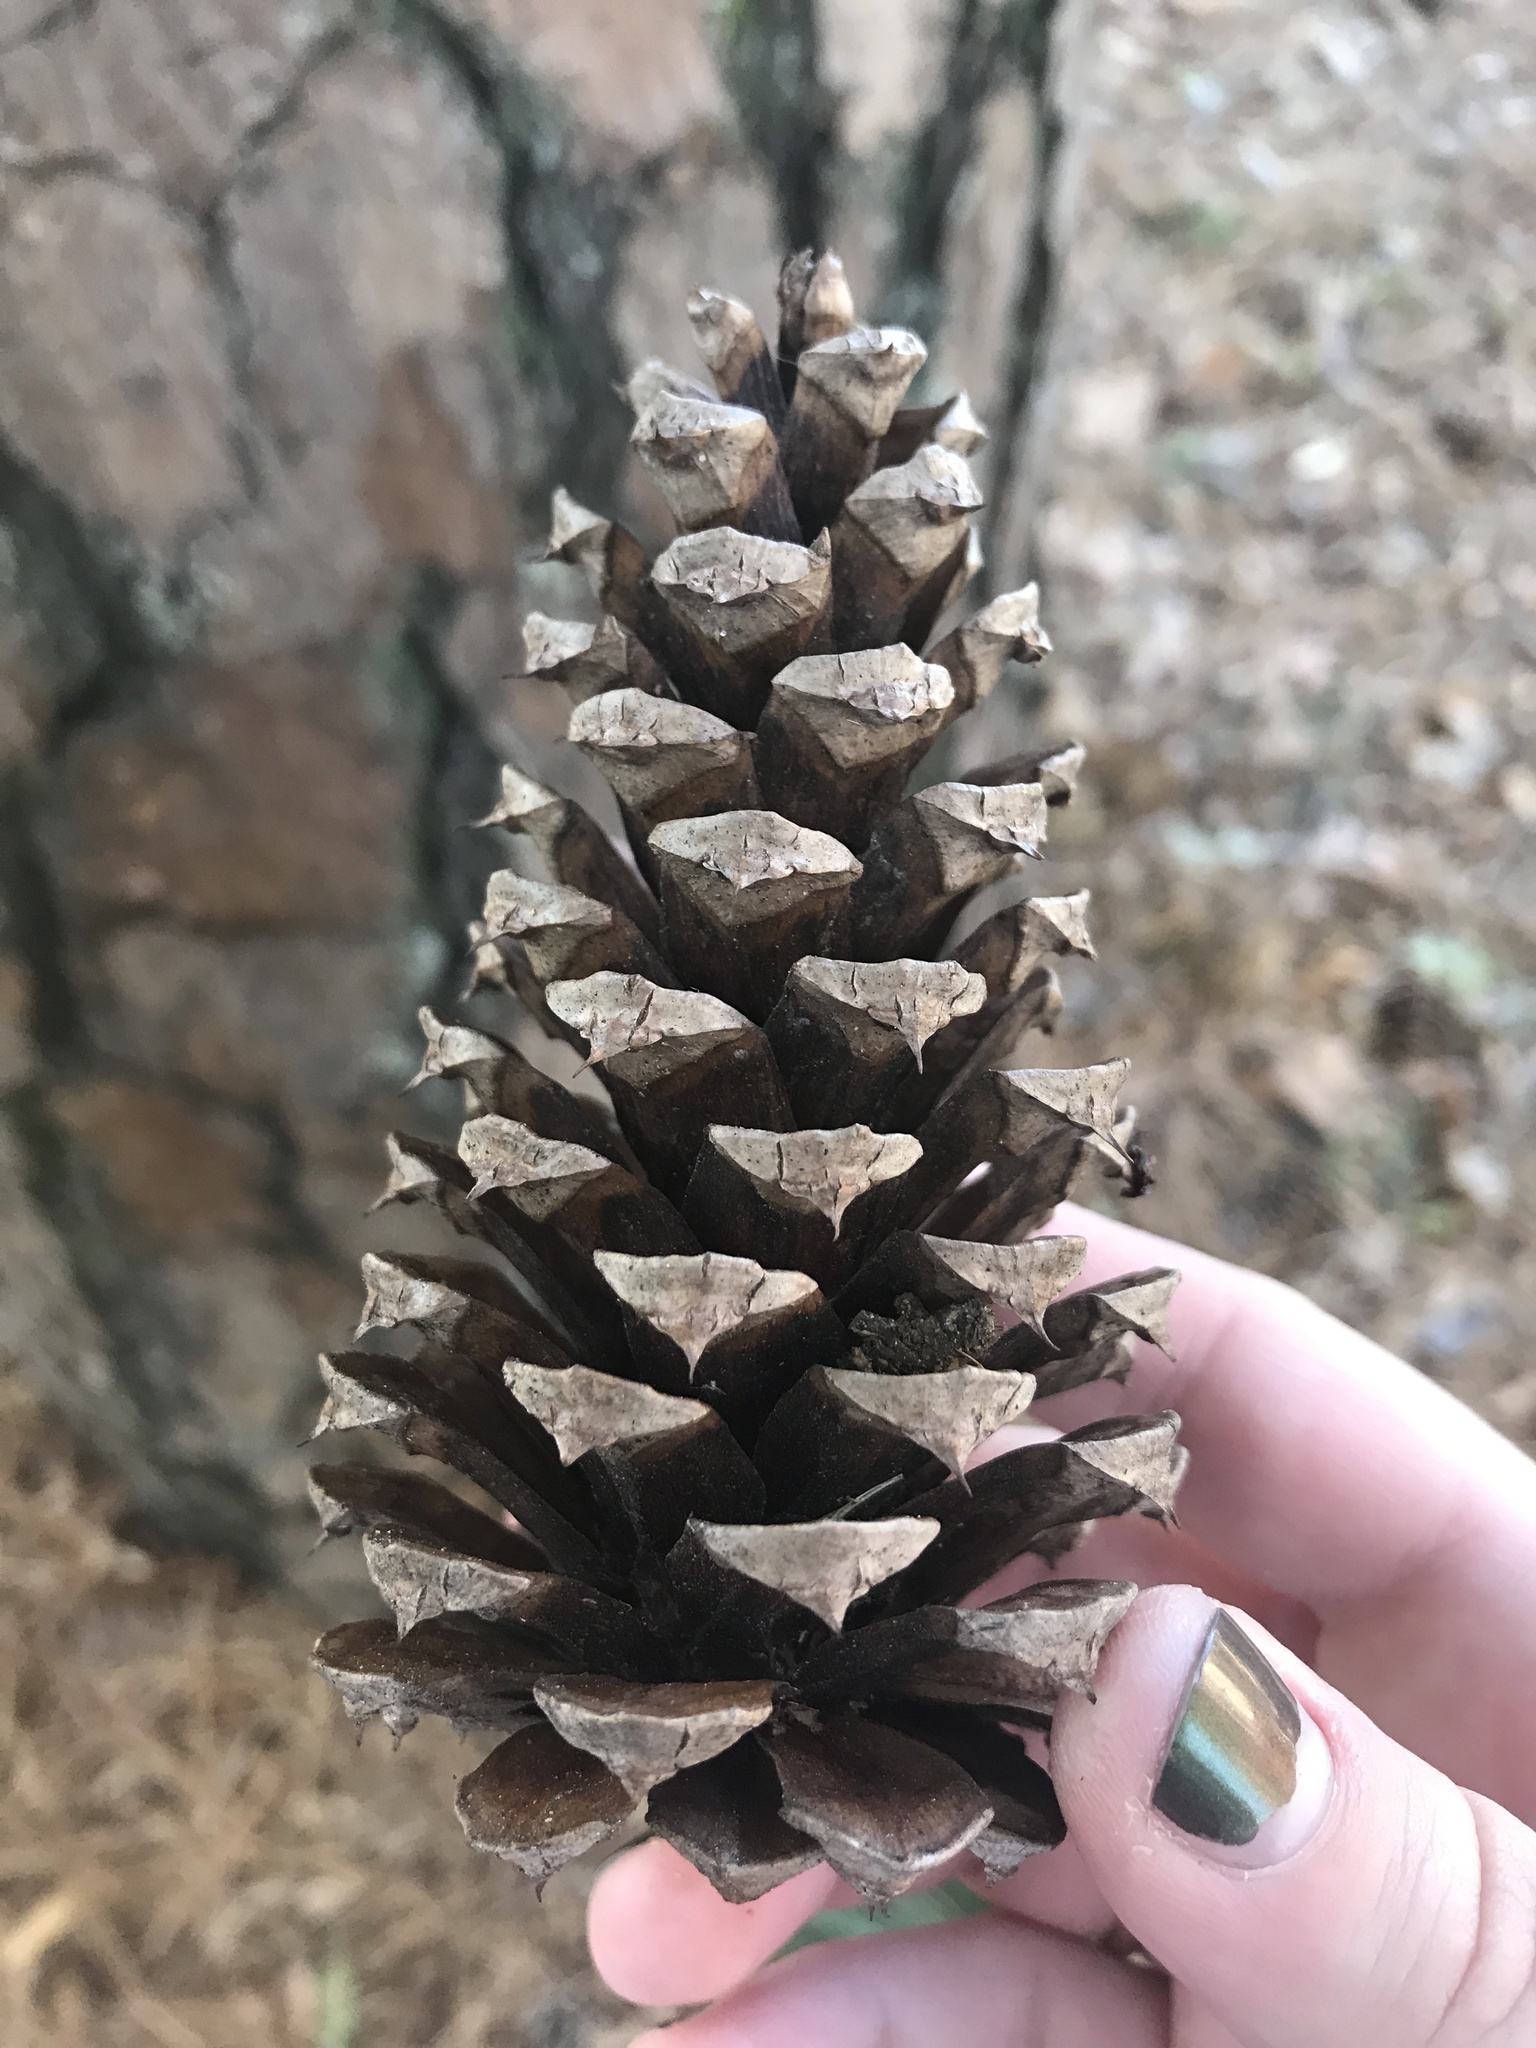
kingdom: Plantae
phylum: Tracheophyta
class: Pinopsida
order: Pinales
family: Pinaceae
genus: Pinus
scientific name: Pinus taeda
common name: Loblolly pine
